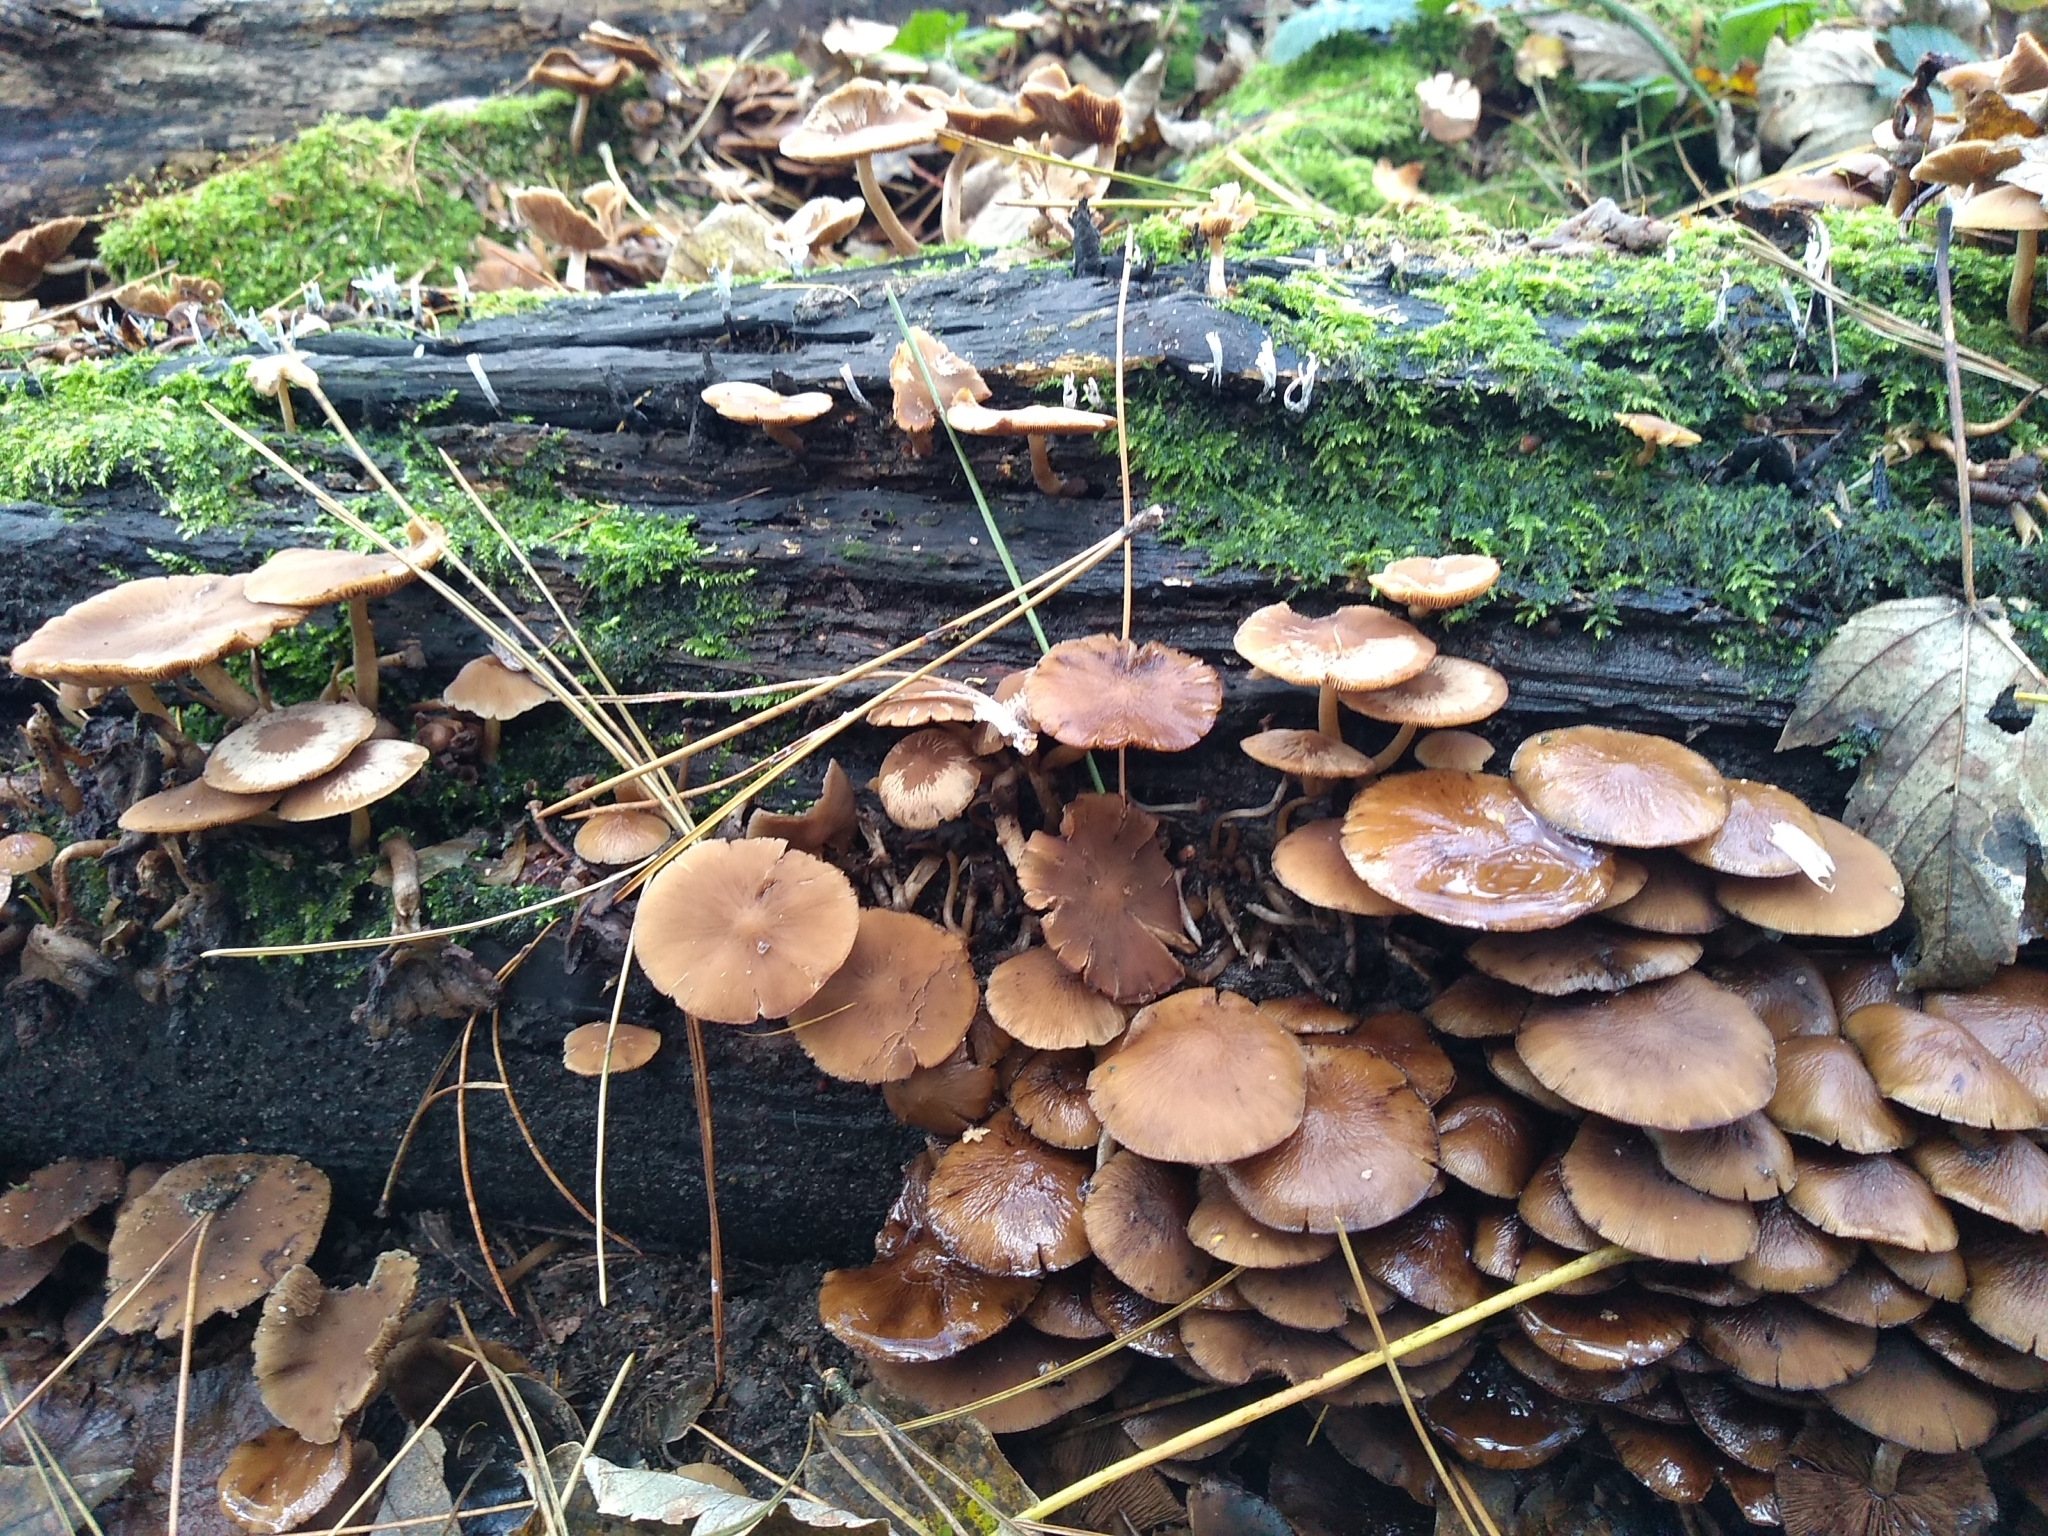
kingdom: Fungi
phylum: Basidiomycota
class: Agaricomycetes
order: Agaricales
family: Psathyrellaceae
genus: Psathyrella
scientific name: Psathyrella piluliformis
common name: Common stump brittlestem
